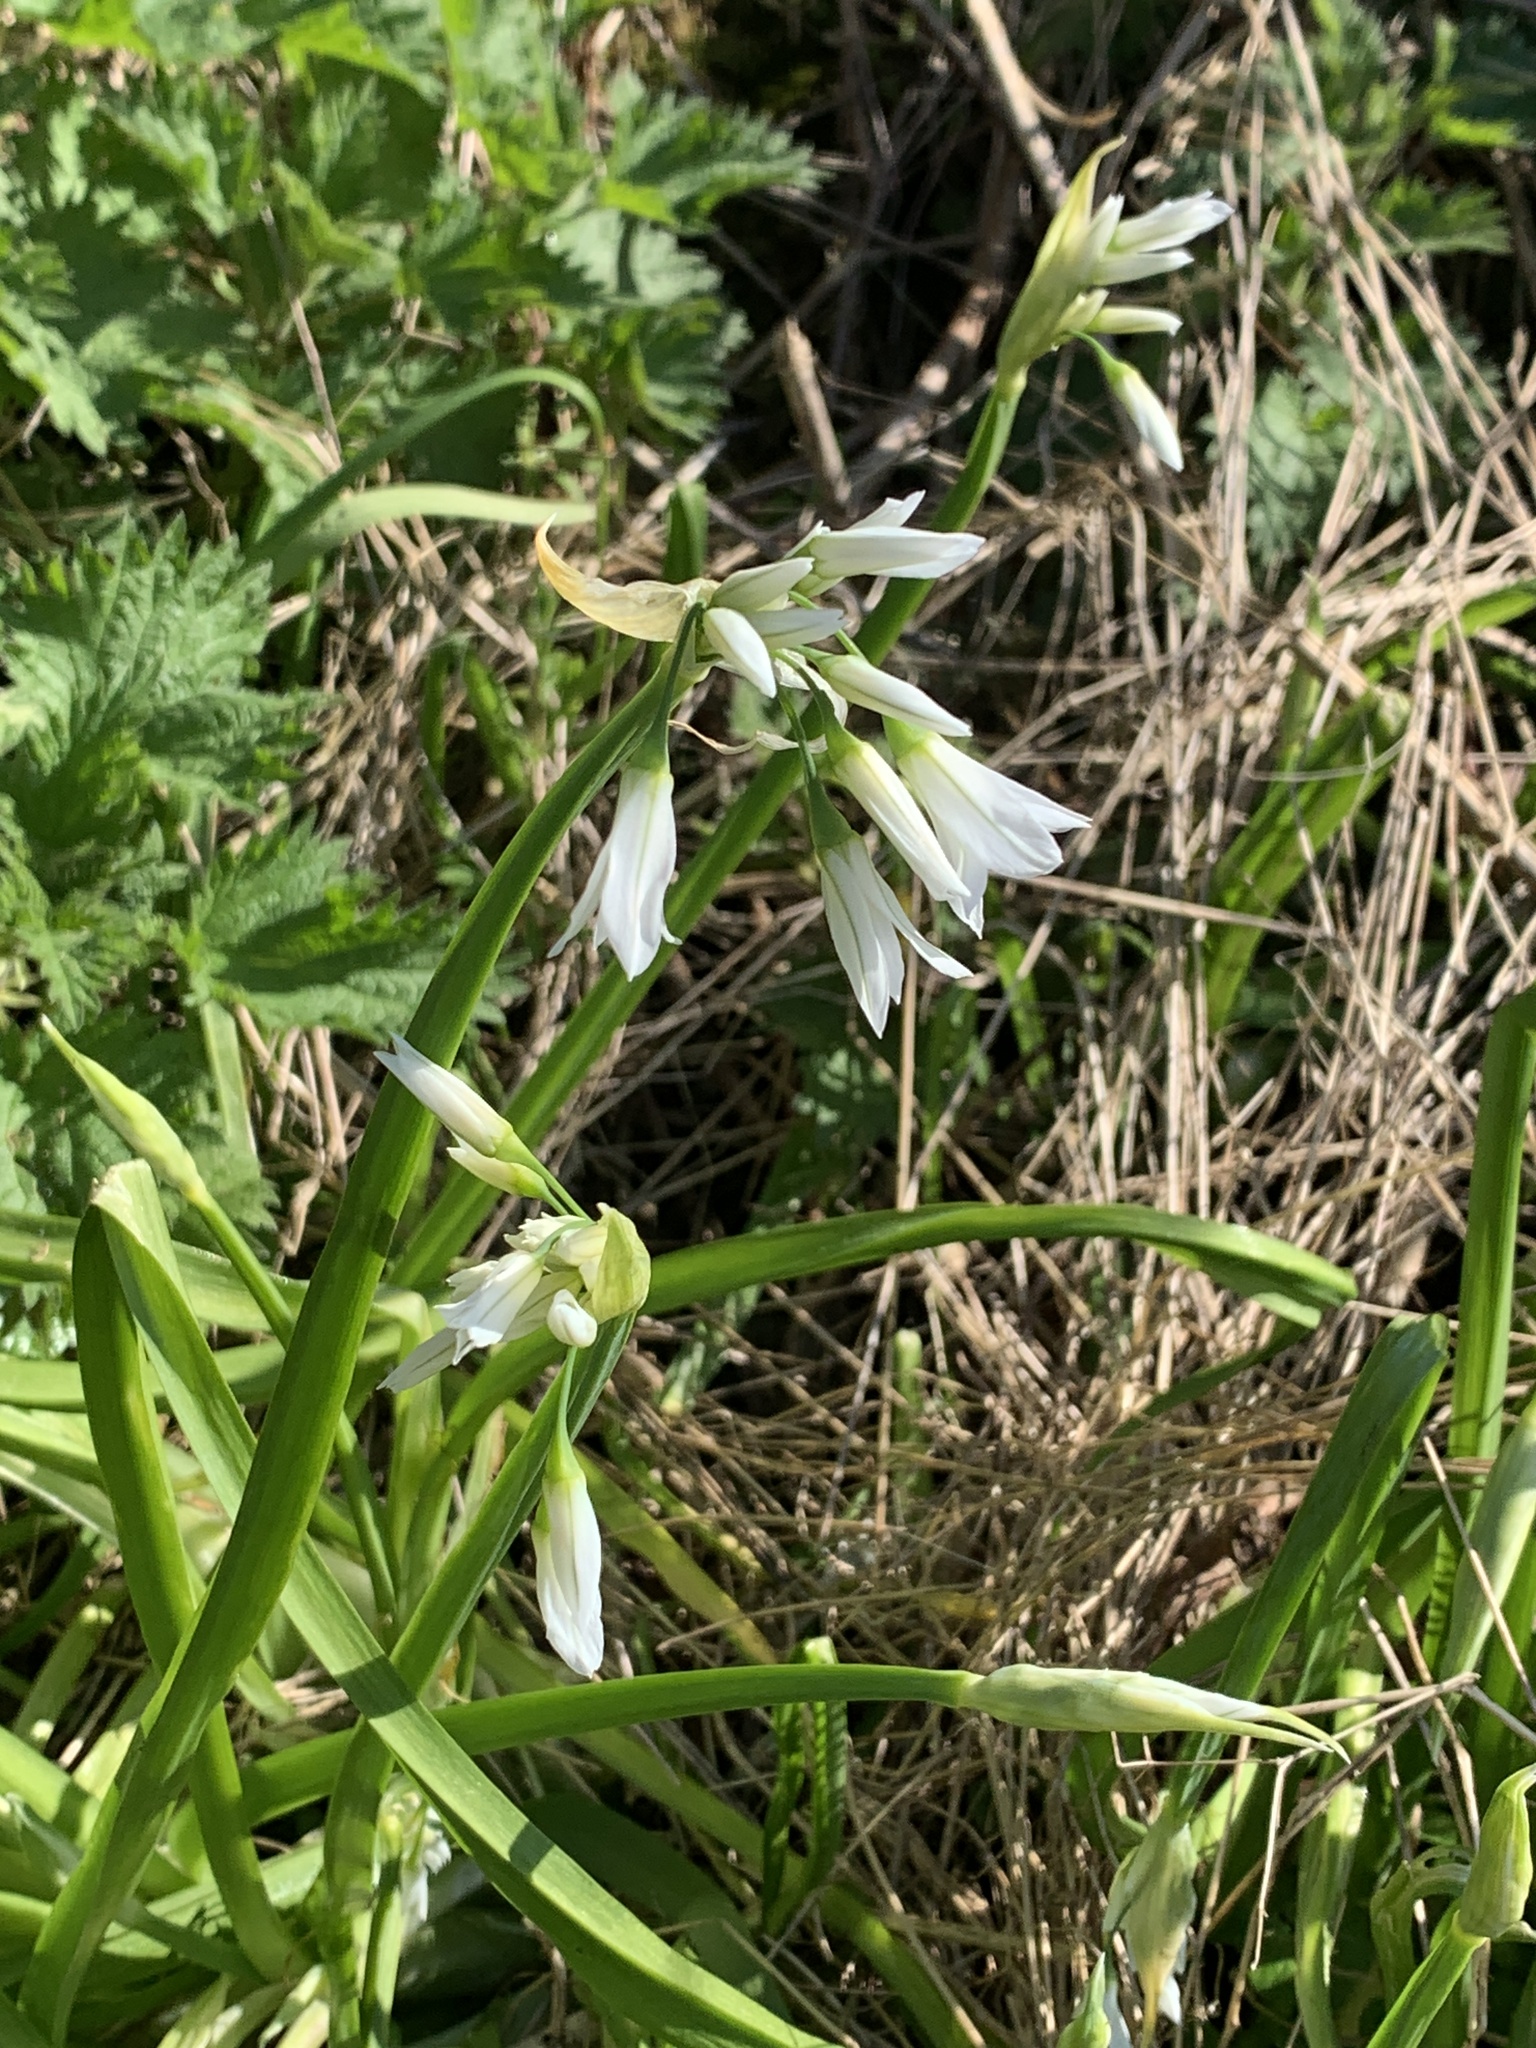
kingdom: Plantae
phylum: Tracheophyta
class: Liliopsida
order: Asparagales
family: Amaryllidaceae
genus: Allium
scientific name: Allium triquetrum
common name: Three-cornered garlic
